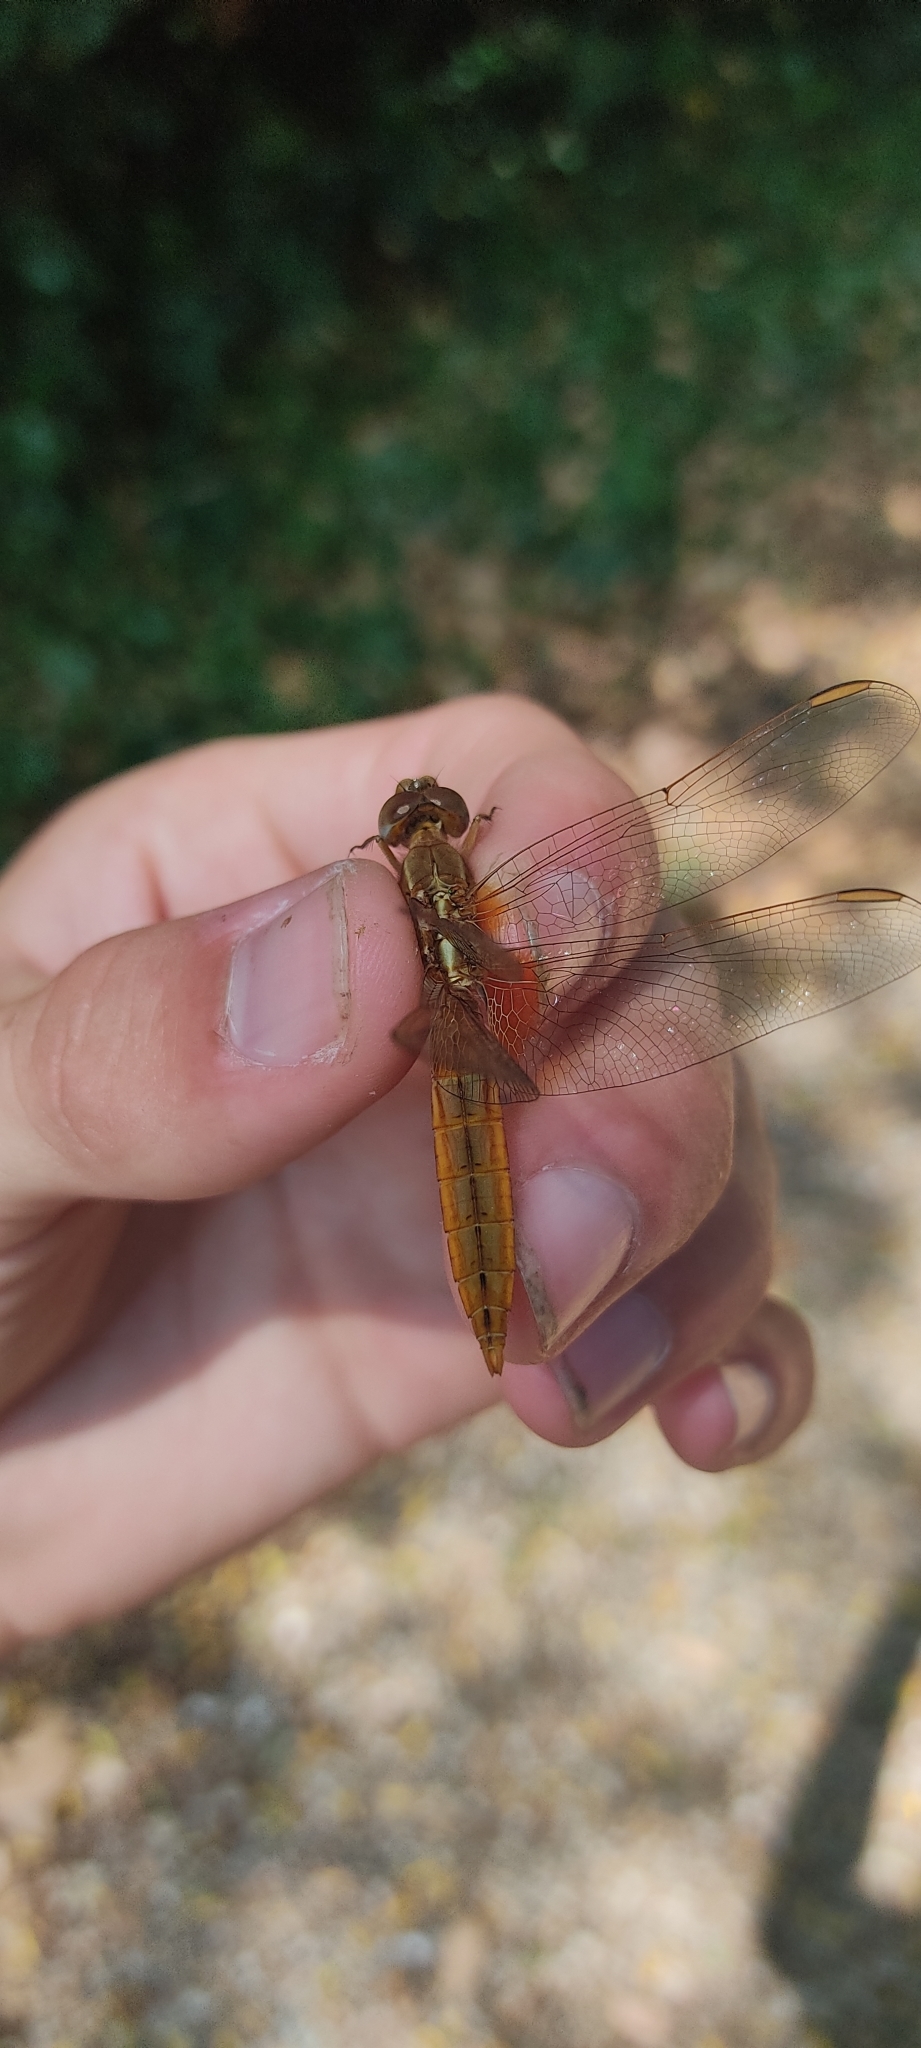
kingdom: Animalia
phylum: Arthropoda
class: Insecta
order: Odonata
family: Libellulidae
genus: Crocothemis
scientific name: Crocothemis erythraea
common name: Scarlet dragonfly
